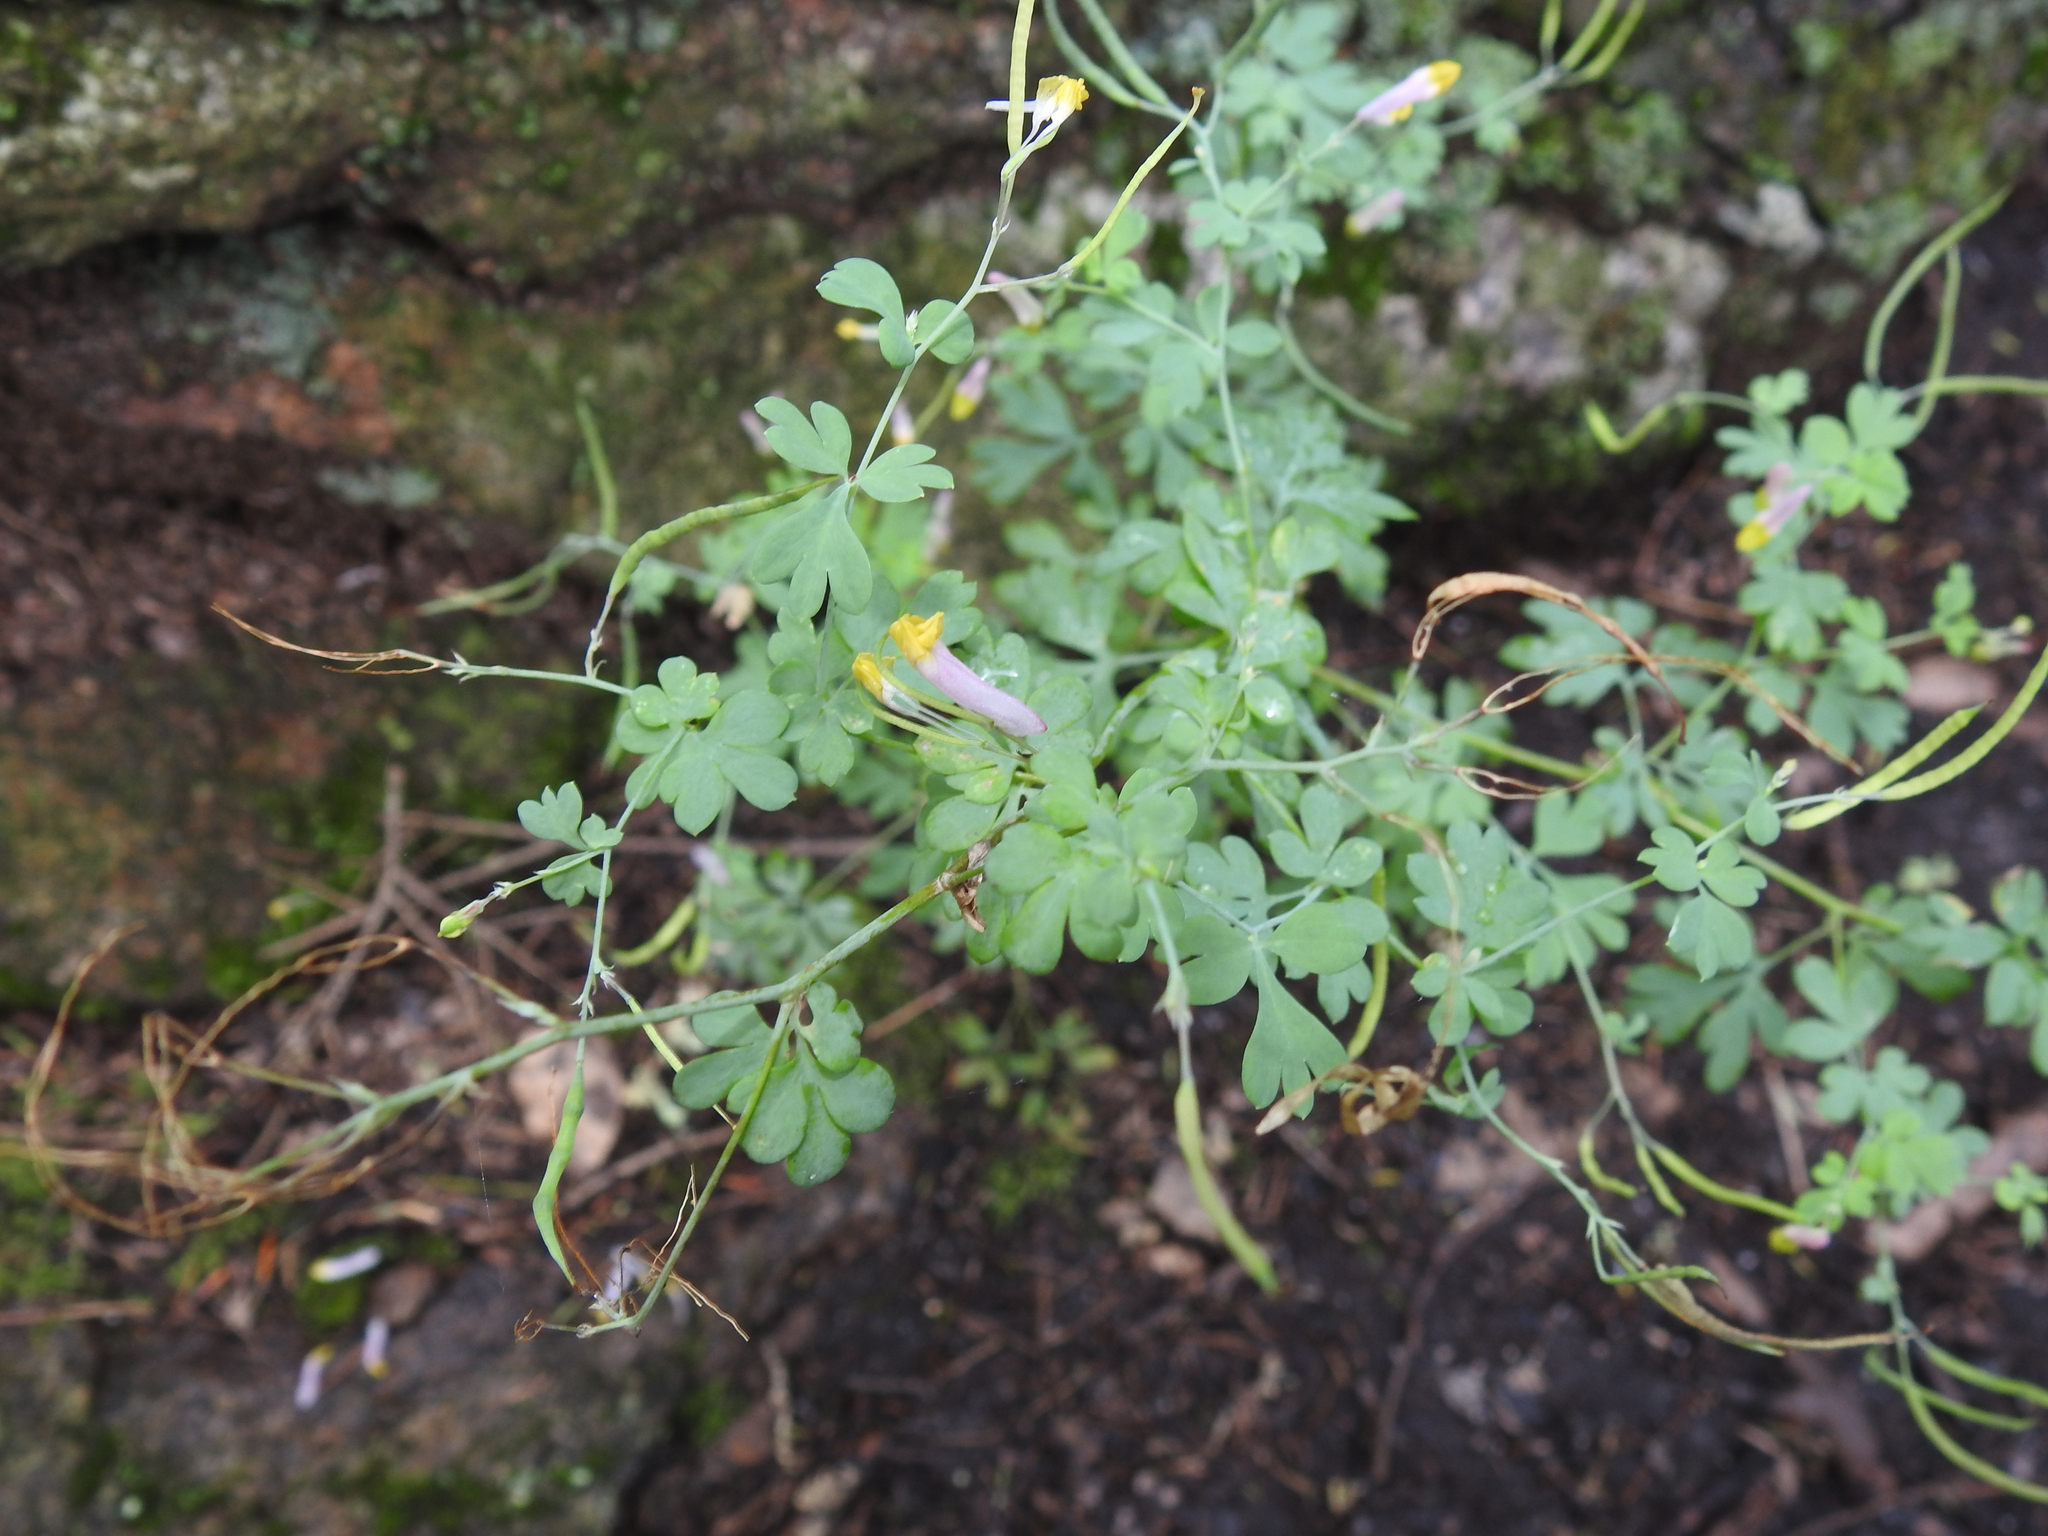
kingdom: Plantae
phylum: Tracheophyta
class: Magnoliopsida
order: Ranunculales
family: Papaveraceae
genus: Capnoides
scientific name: Capnoides sempervirens
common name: Rock harlequin
